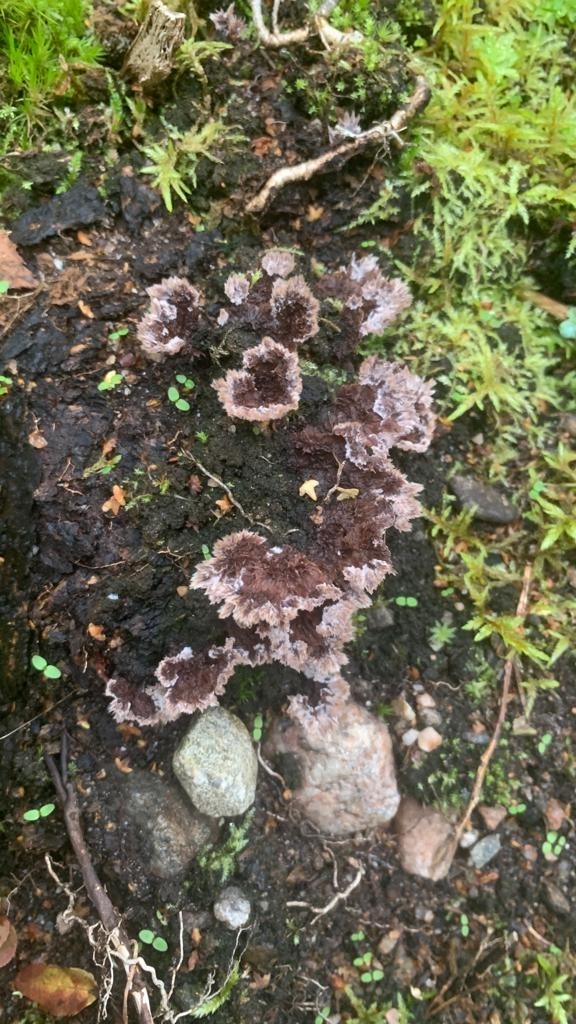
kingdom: Fungi
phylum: Basidiomycota
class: Agaricomycetes
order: Thelephorales
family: Thelephoraceae
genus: Thelephora
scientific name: Thelephora terrestris
